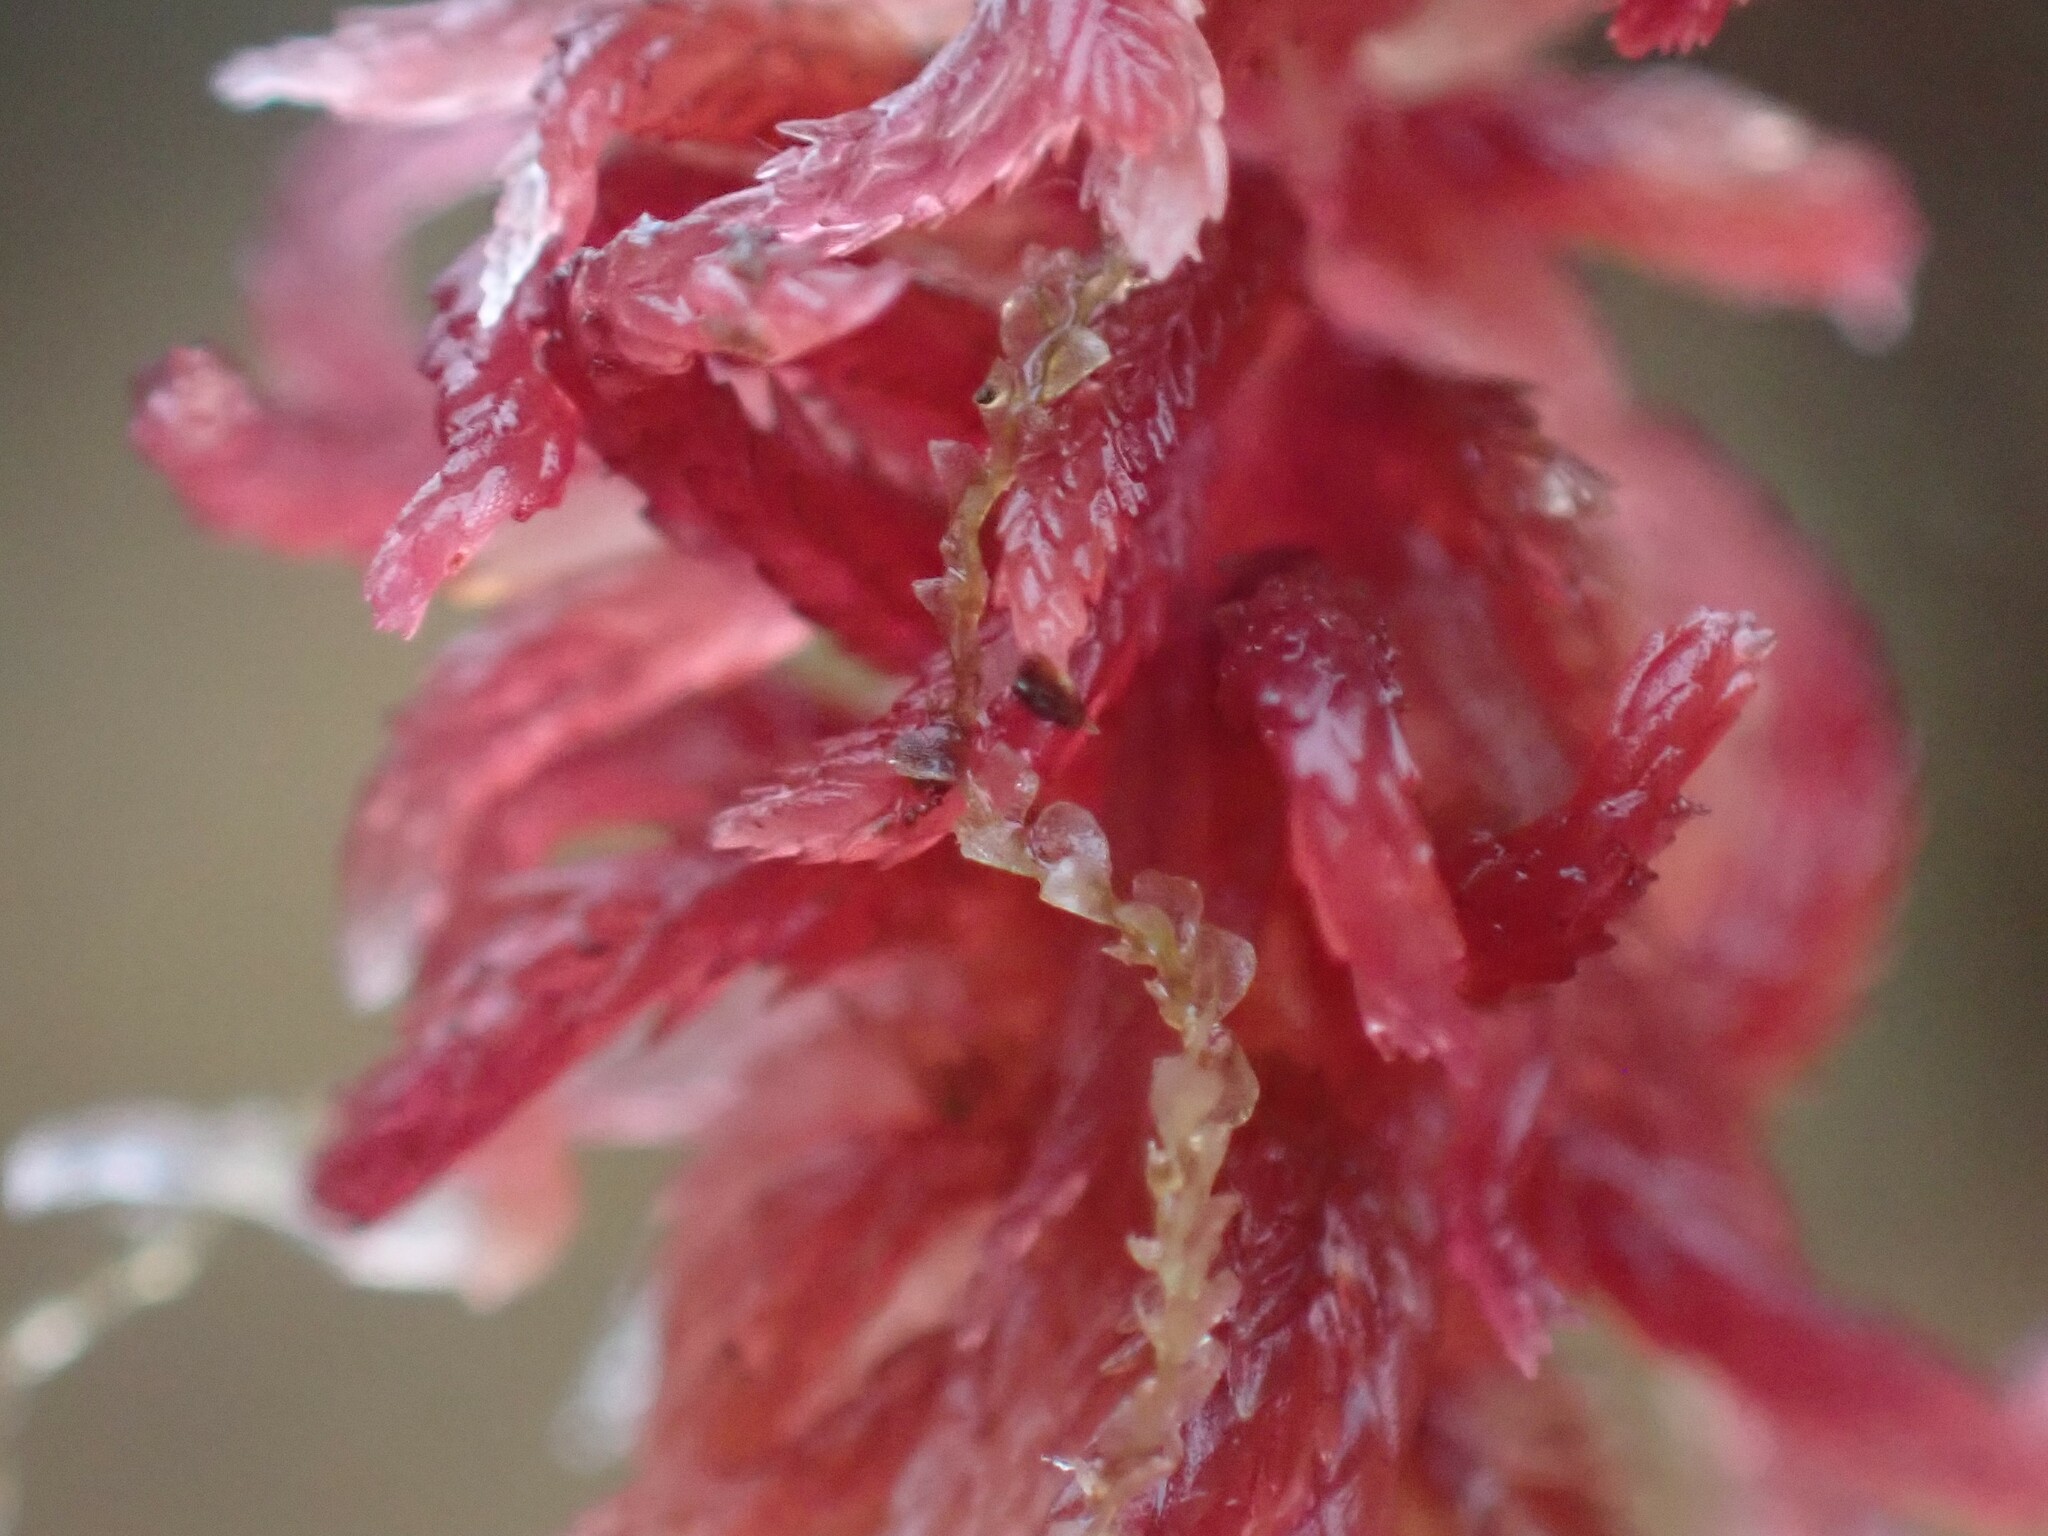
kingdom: Plantae
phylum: Marchantiophyta
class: Jungermanniopsida
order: Jungermanniales
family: Calypogeiaceae
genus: Calypogeia
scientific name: Calypogeia sphagnicola
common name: Bog pouchwort
